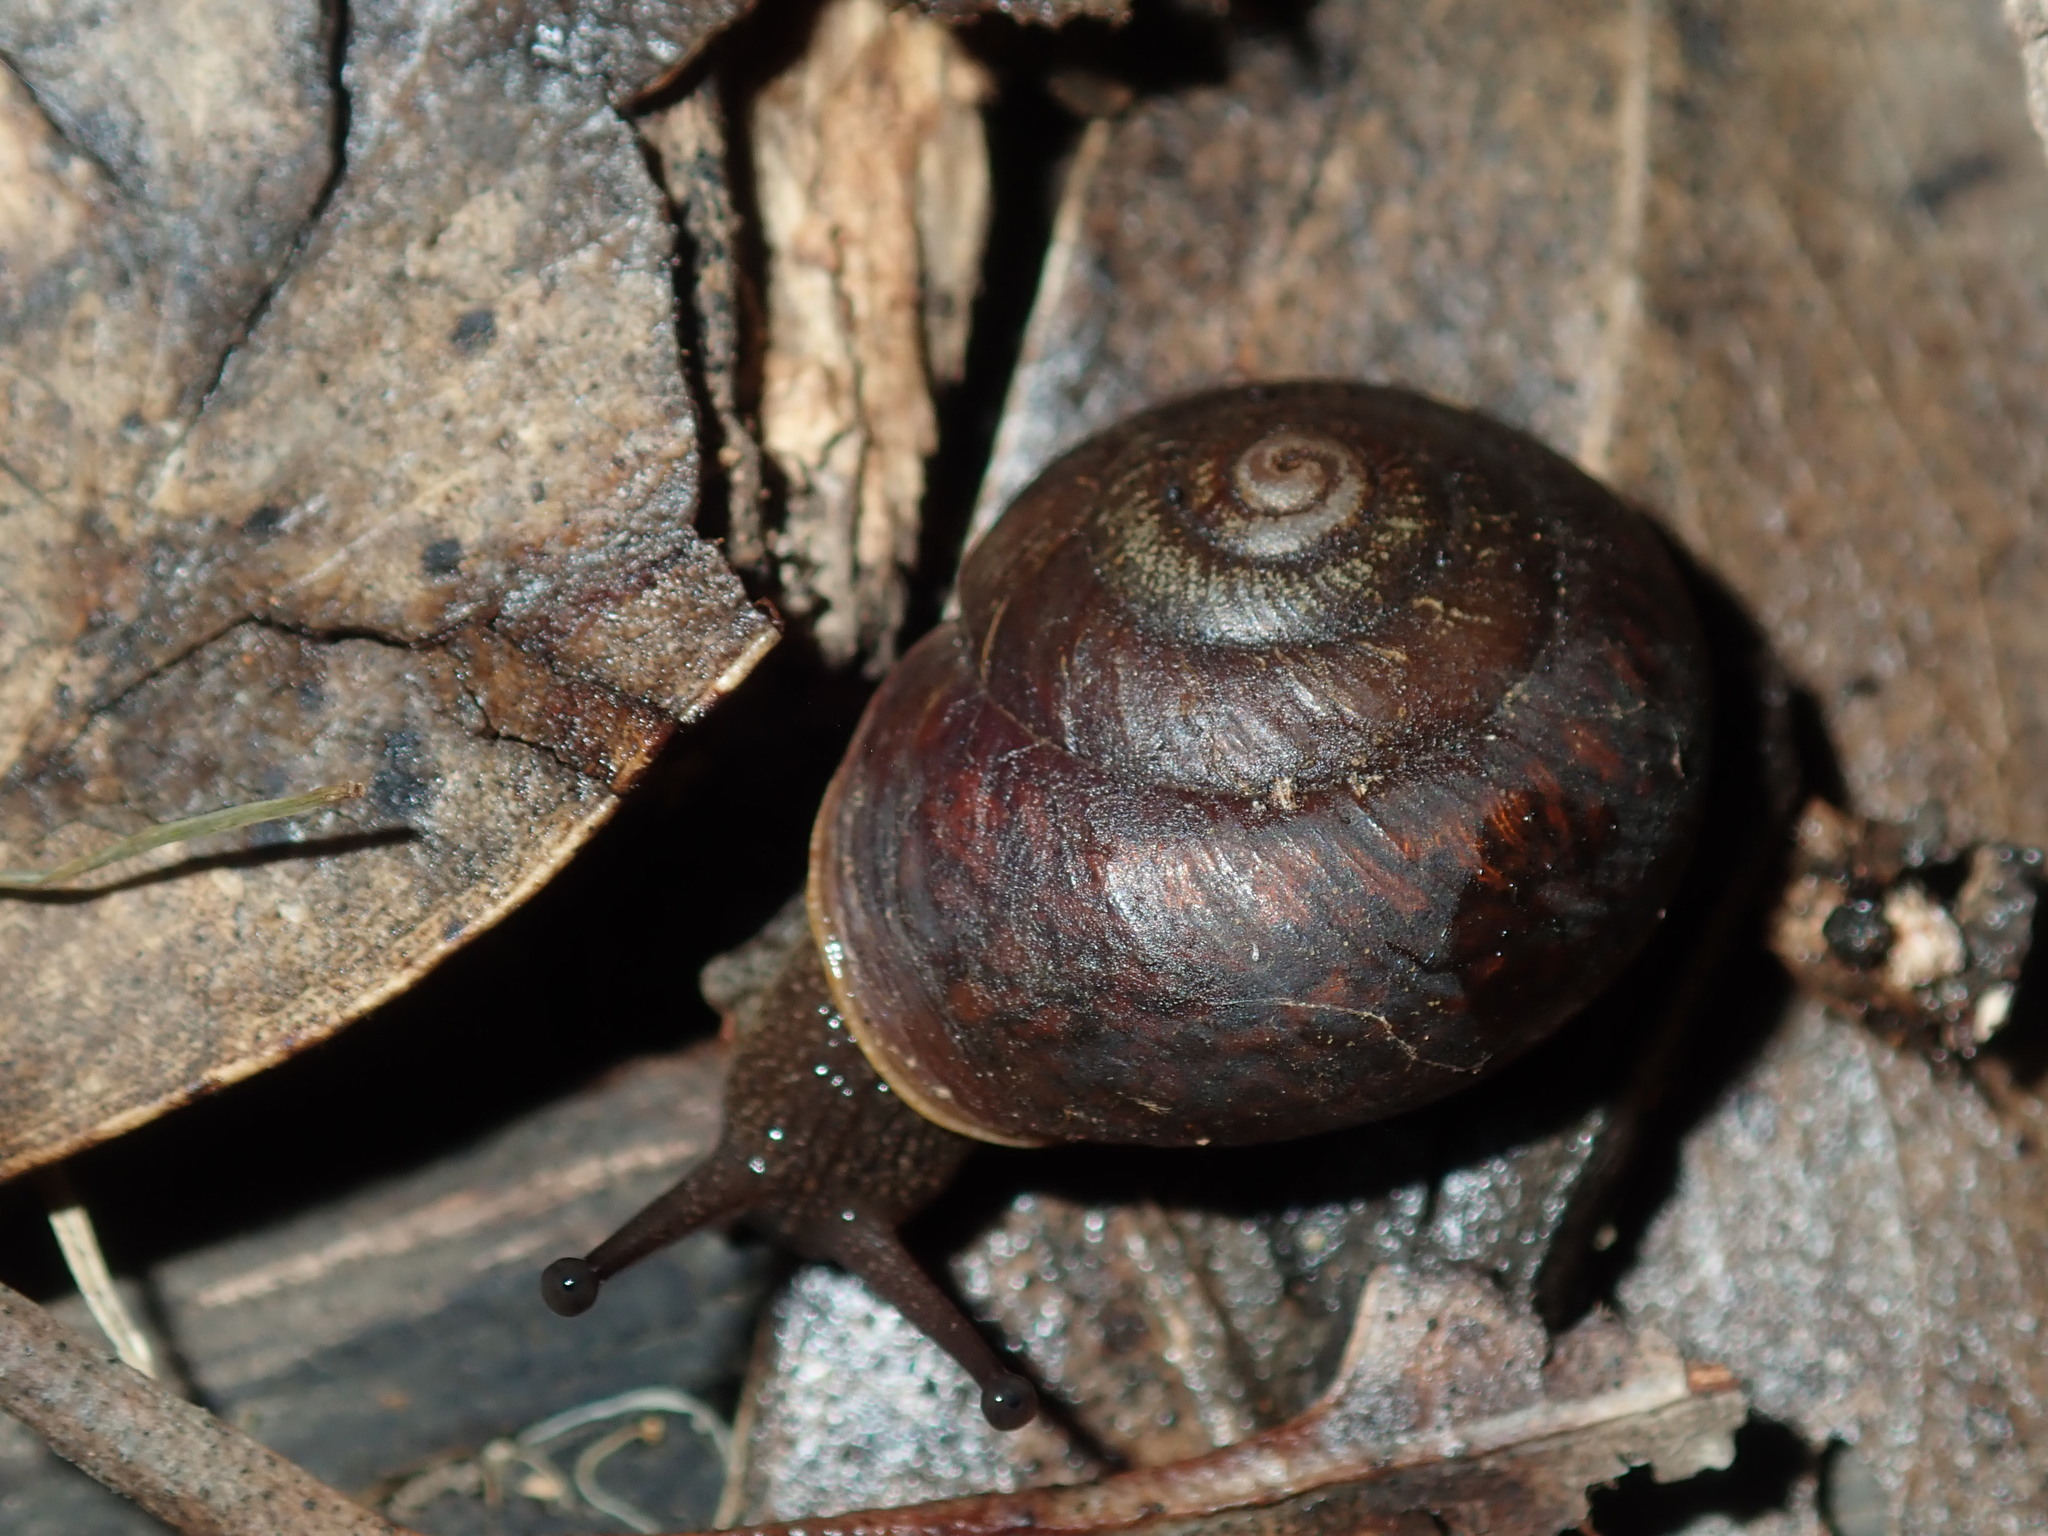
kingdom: Animalia
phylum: Mollusca
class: Gastropoda
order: Stylommatophora
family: Camaenidae
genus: Sauroconcha
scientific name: Sauroconcha sheai
